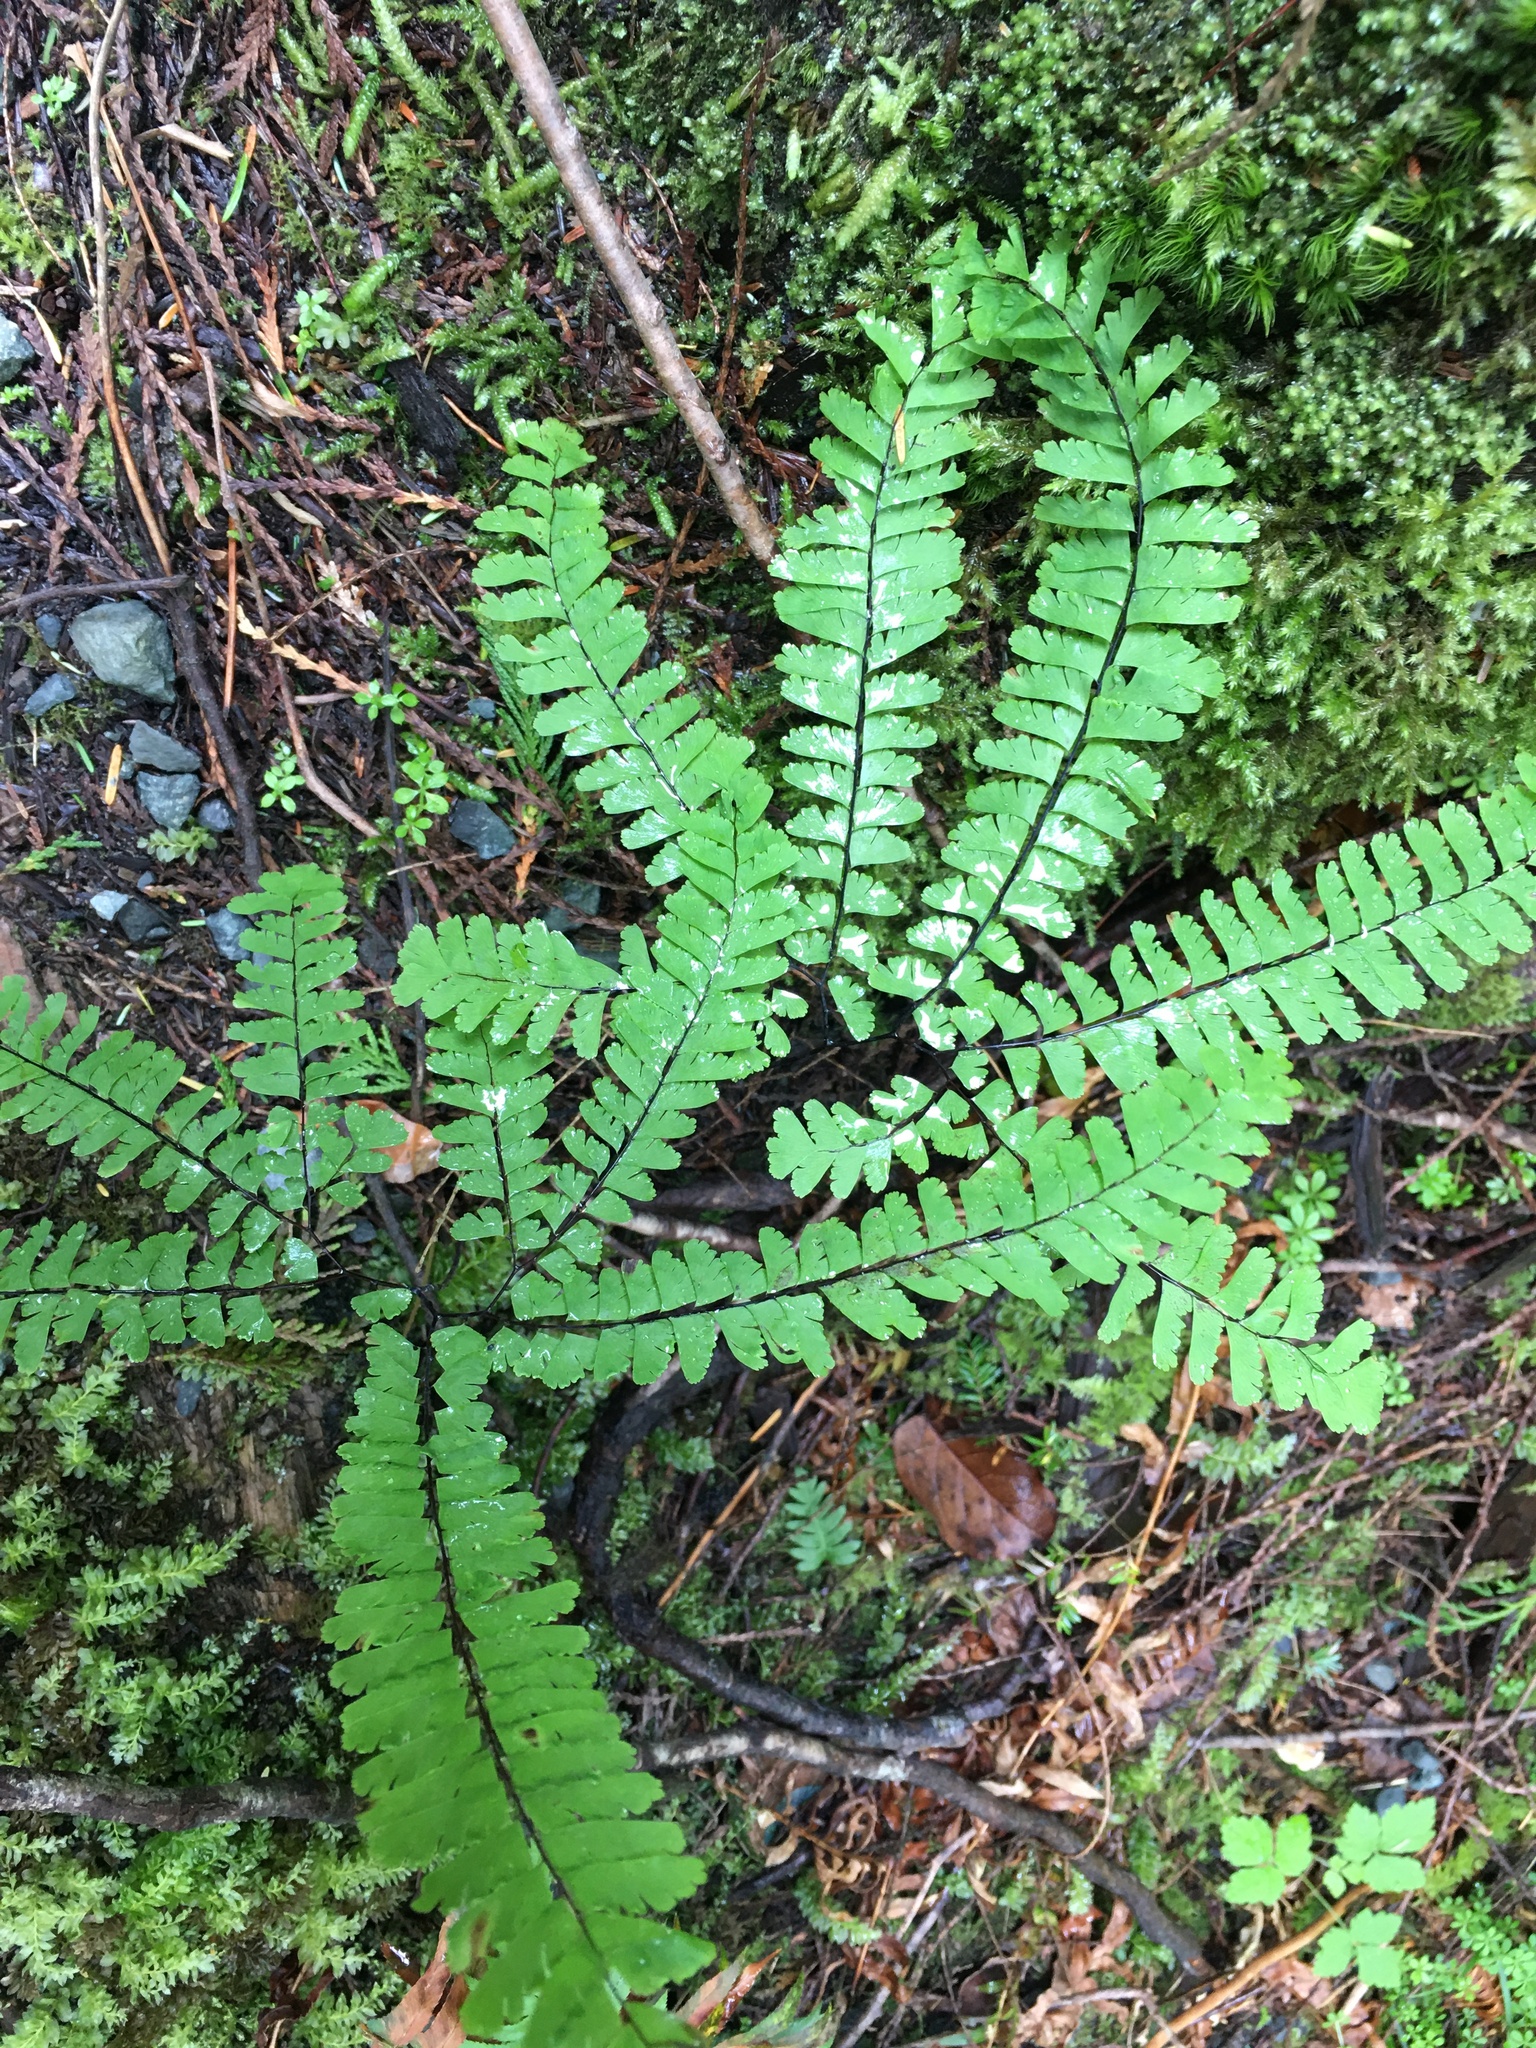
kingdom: Plantae
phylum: Tracheophyta
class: Polypodiopsida
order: Polypodiales
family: Pteridaceae
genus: Adiantum
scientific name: Adiantum aleuticum
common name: Aleutian maidenhair fern
